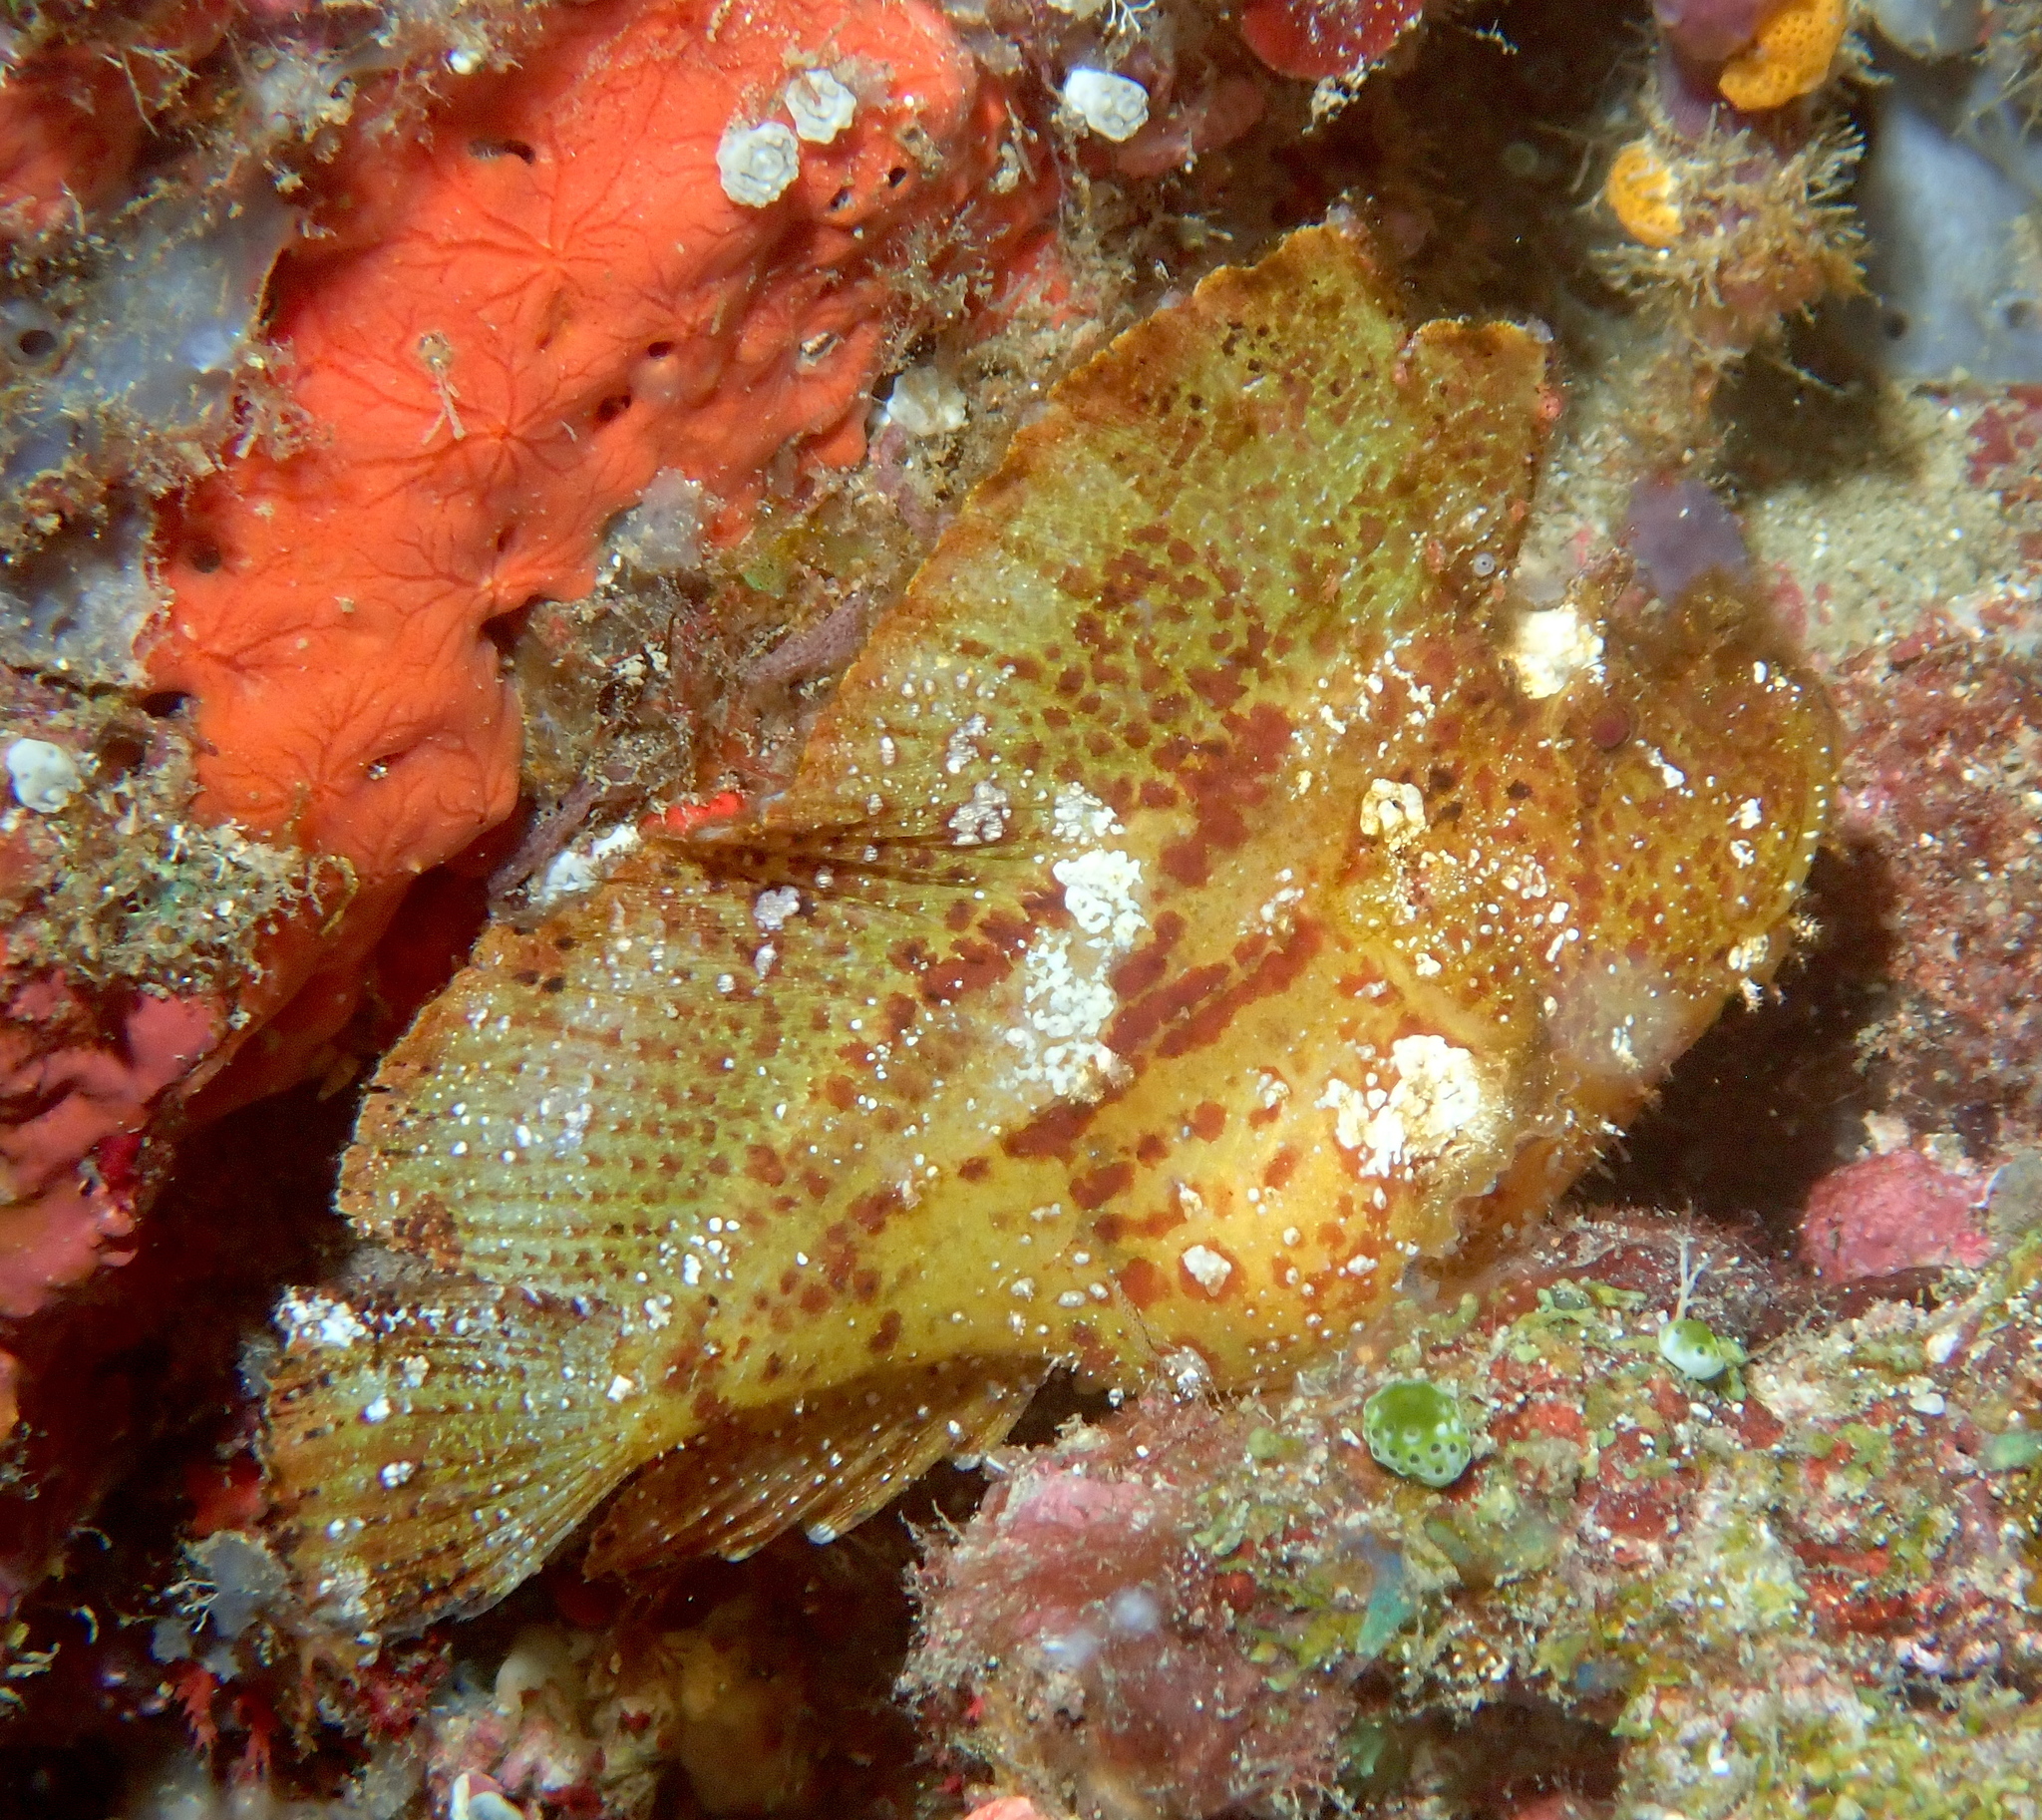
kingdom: Animalia
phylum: Chordata
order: Scorpaeniformes
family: Scorpaenidae
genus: Taenianotus
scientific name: Taenianotus triacanthus
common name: Leaf scorpionfish
